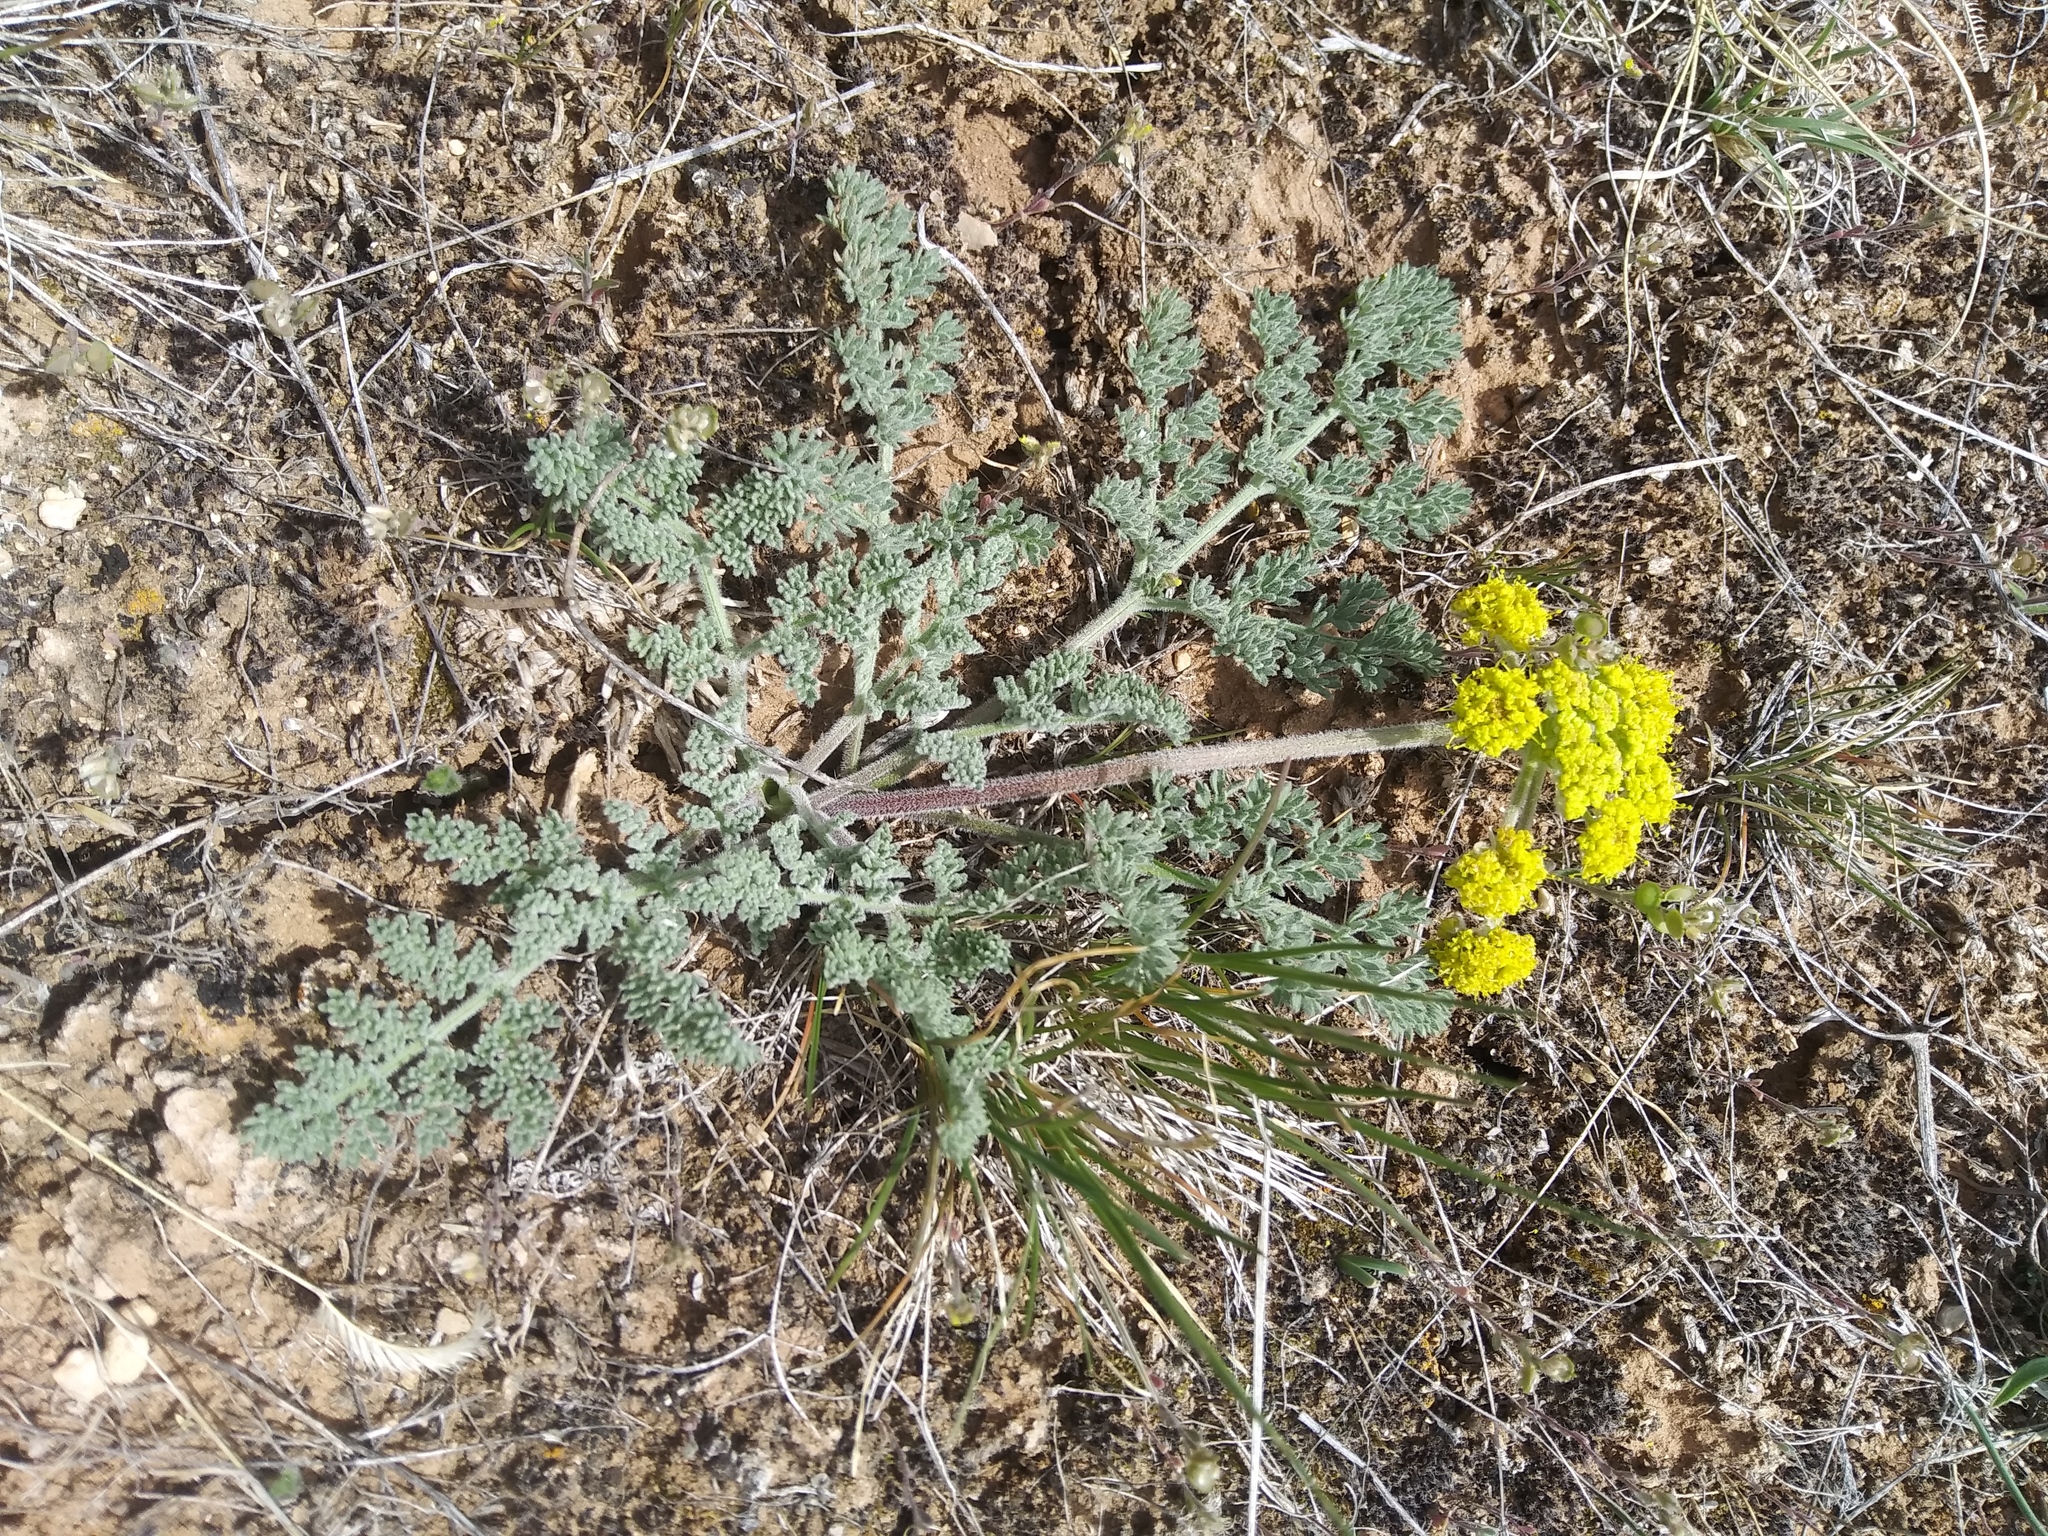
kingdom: Plantae
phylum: Tracheophyta
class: Magnoliopsida
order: Apiales
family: Apiaceae
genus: Lomatium
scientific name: Lomatium foeniculaceum
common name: Desert-parsley
